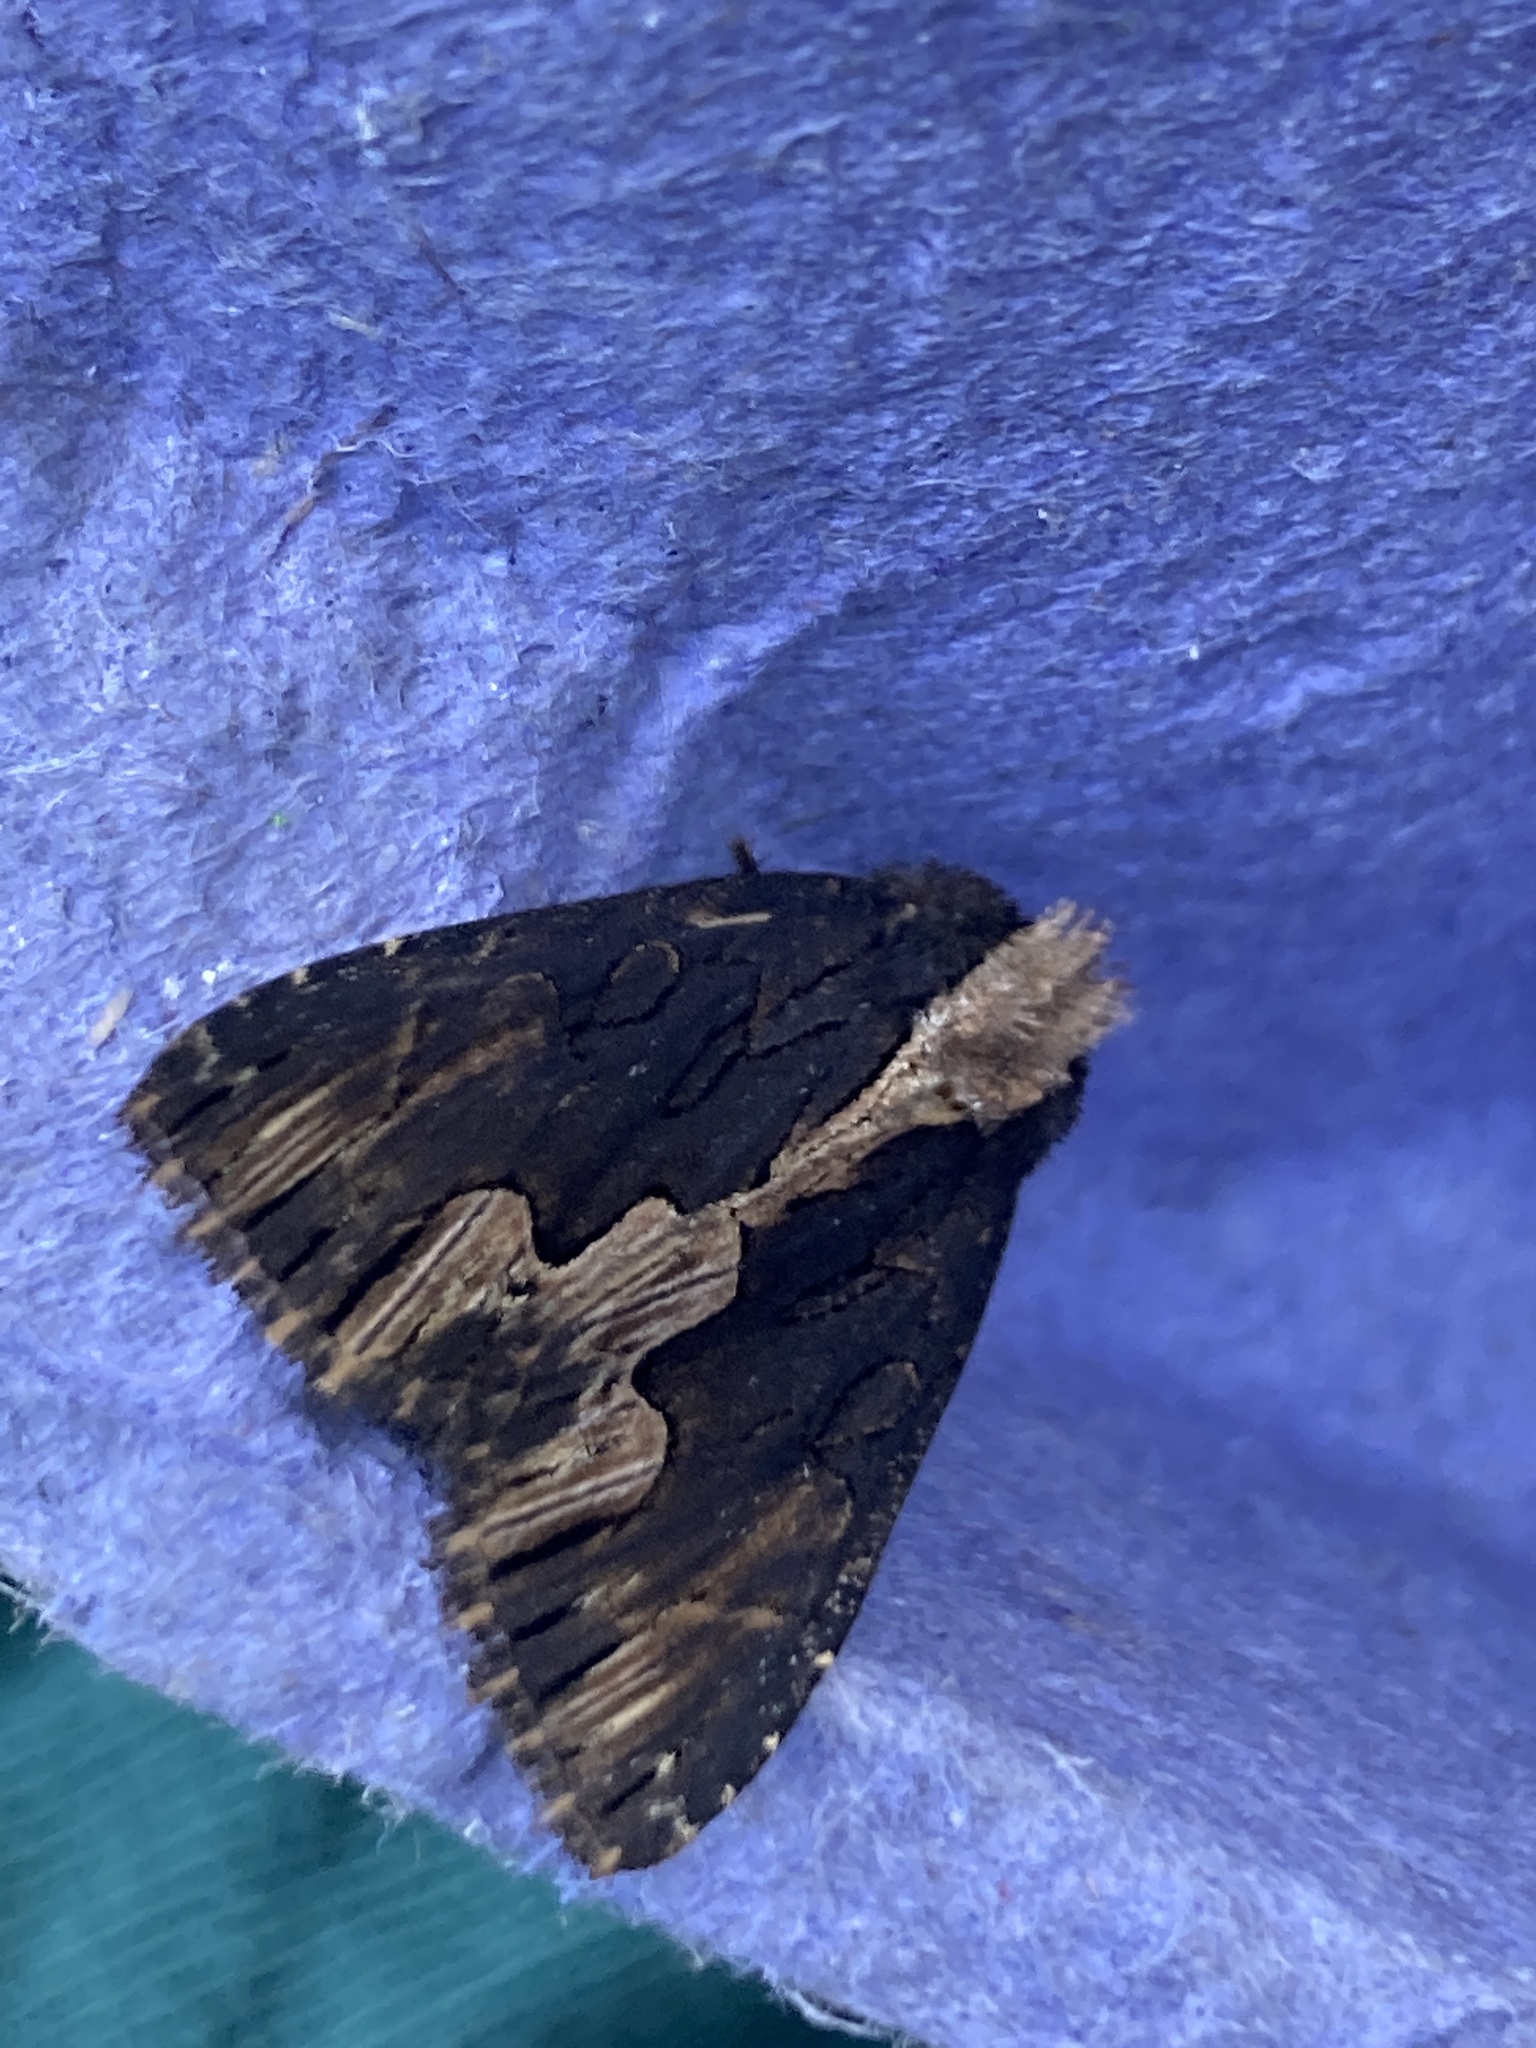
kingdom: Animalia
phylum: Arthropoda
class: Insecta
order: Lepidoptera
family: Noctuidae
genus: Dypterygia
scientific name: Dypterygia scabriuscula
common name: Bird's wing
